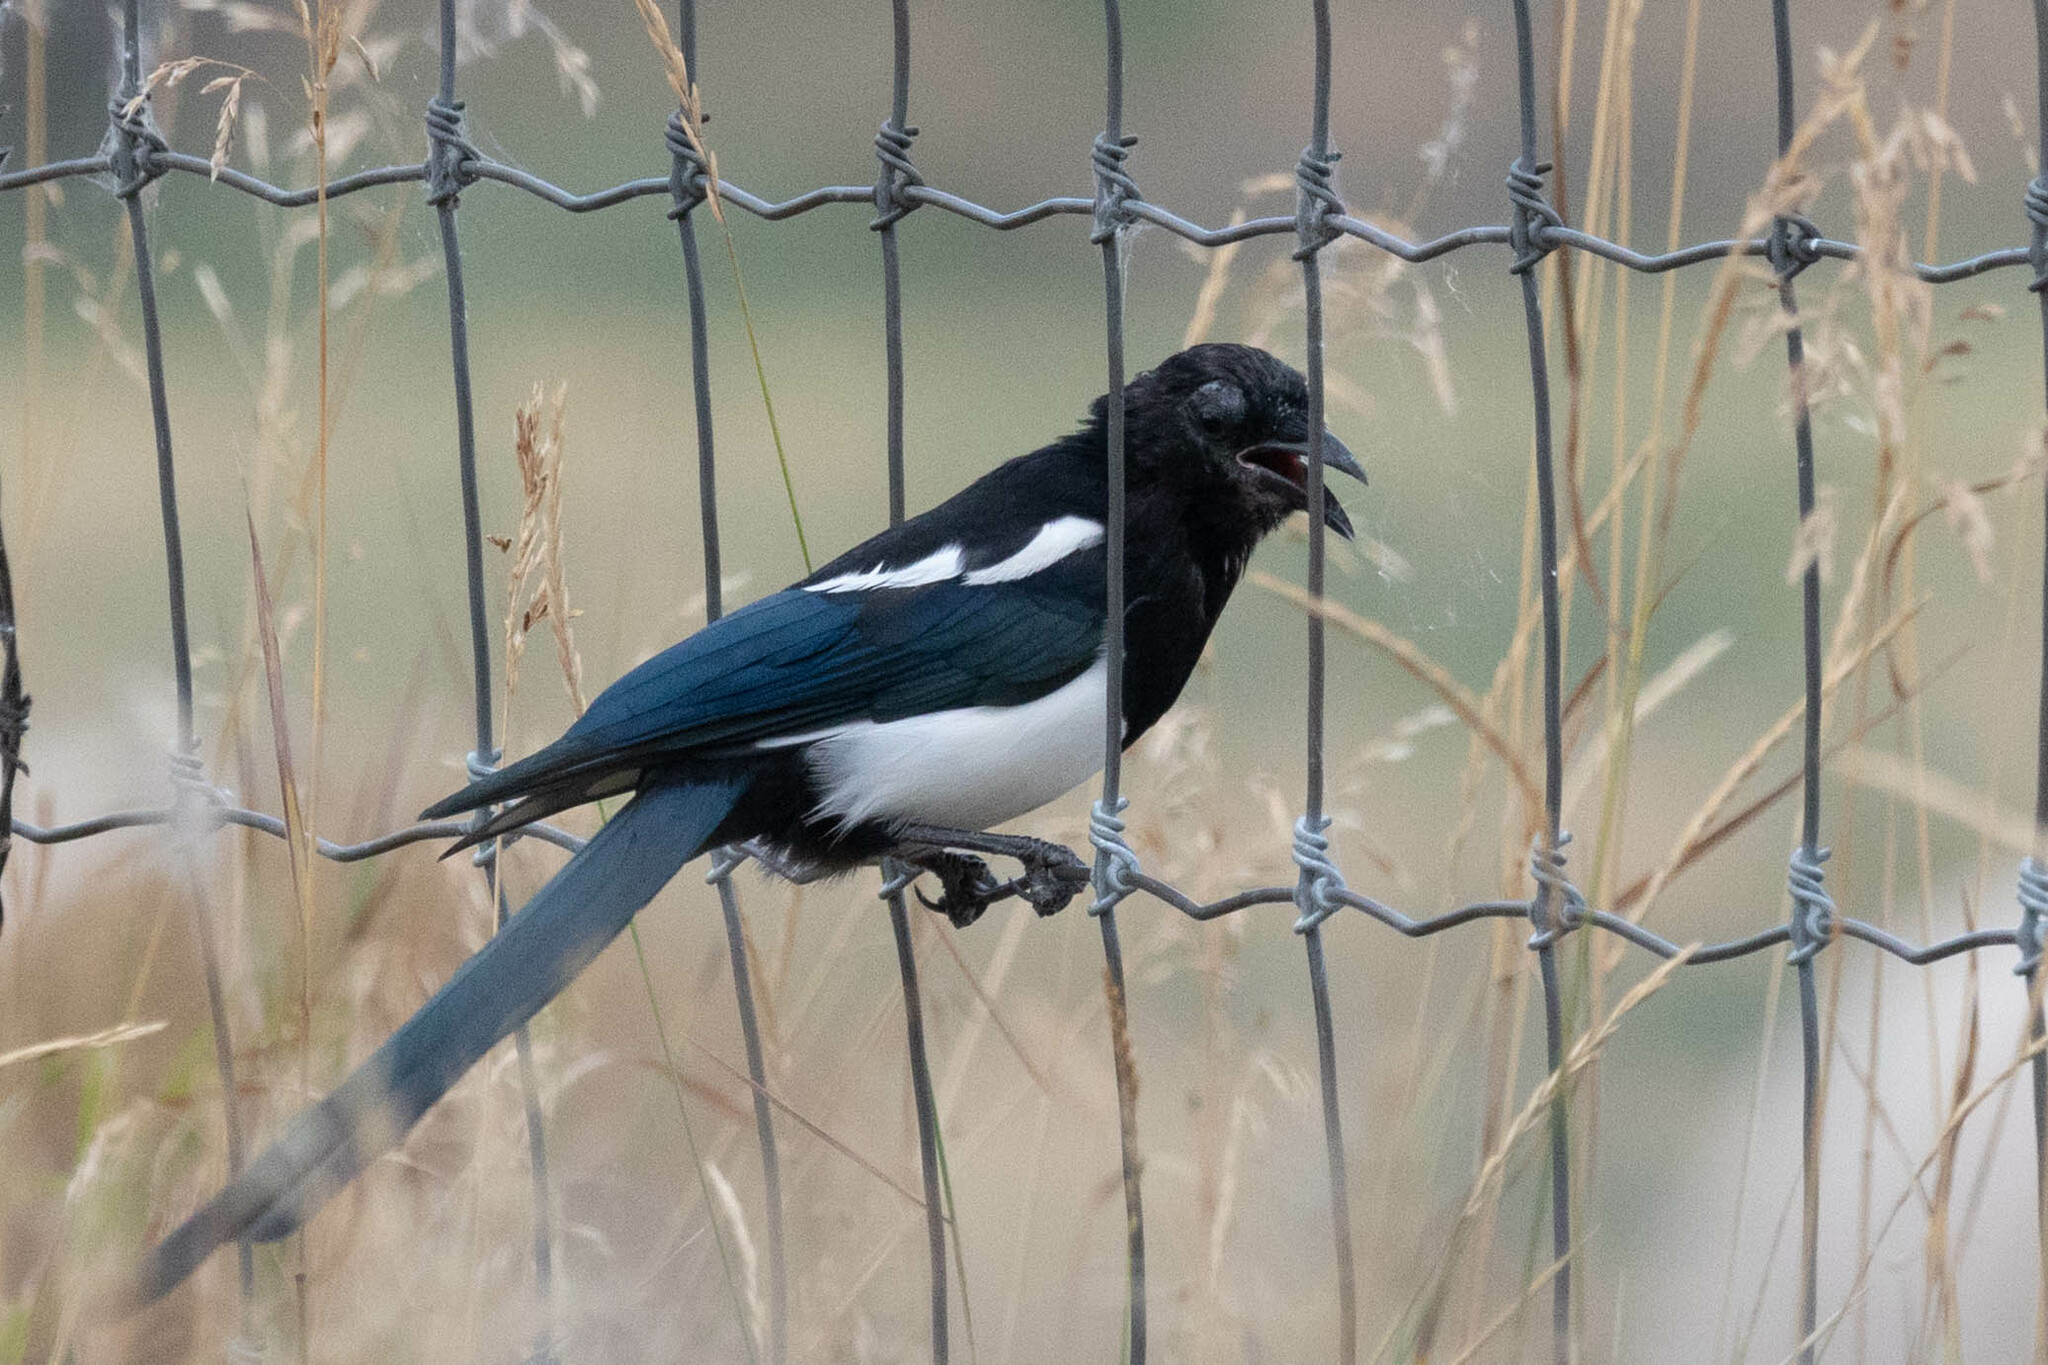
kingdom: Animalia
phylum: Chordata
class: Aves
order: Passeriformes
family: Corvidae
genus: Pica
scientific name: Pica hudsonia
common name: Black-billed magpie
